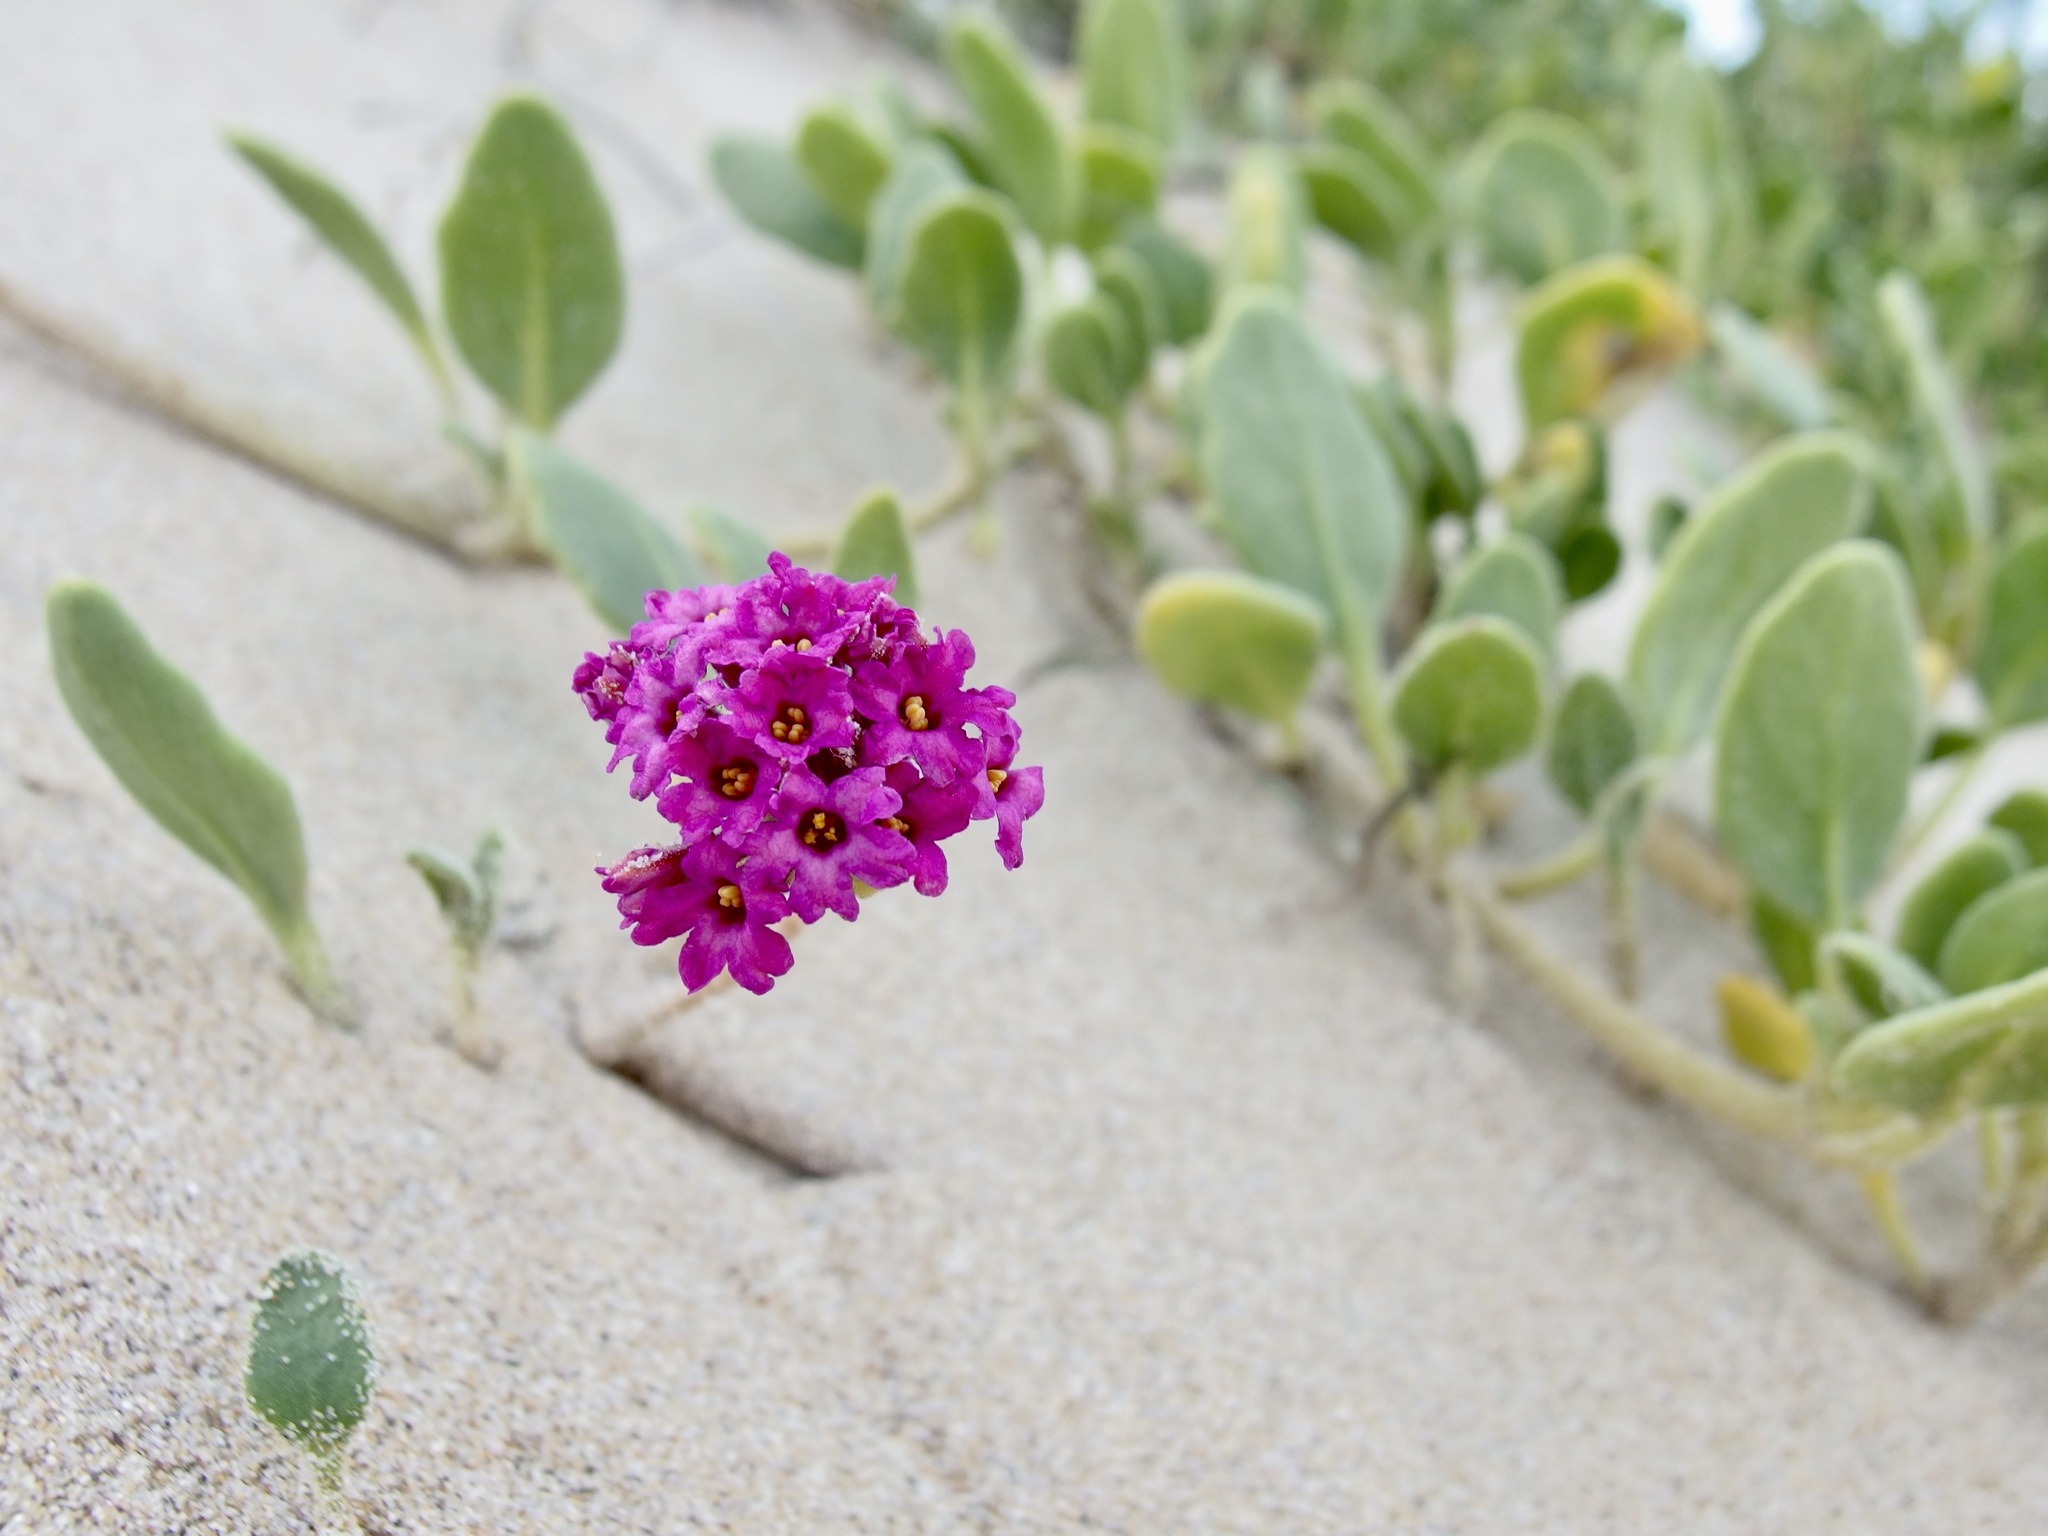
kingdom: Plantae
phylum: Tracheophyta
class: Magnoliopsida
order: Caryophyllales
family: Nyctaginaceae
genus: Abronia
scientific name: Abronia maritima
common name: Red sand-verbena
